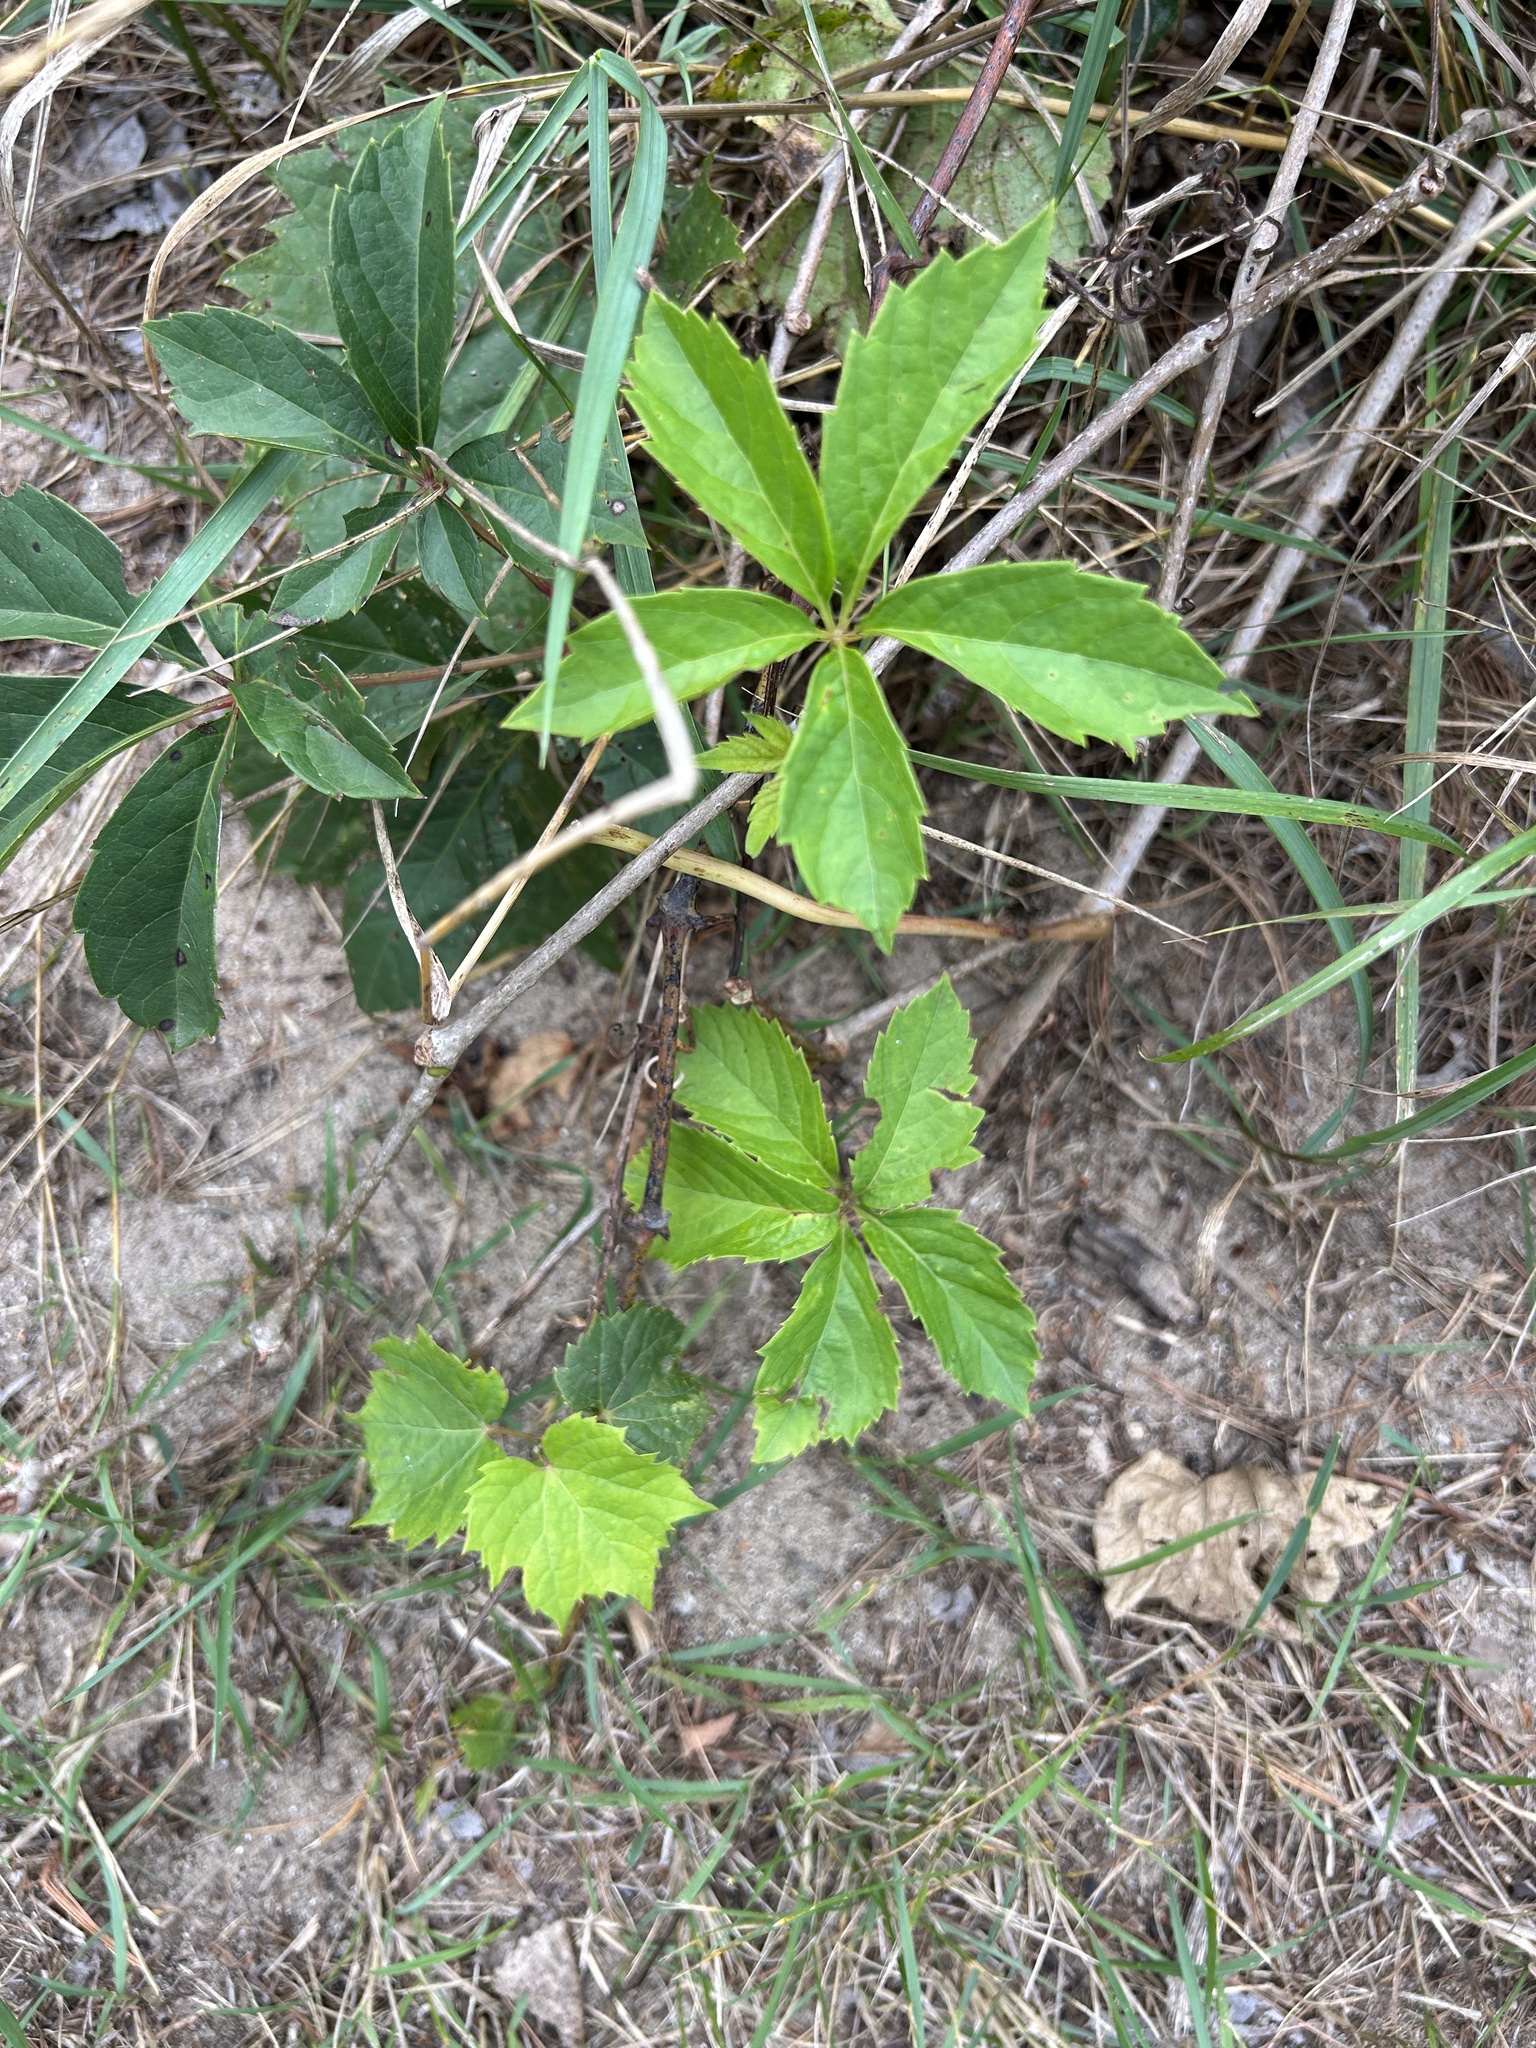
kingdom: Plantae
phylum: Tracheophyta
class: Magnoliopsida
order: Vitales
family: Vitaceae
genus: Parthenocissus
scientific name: Parthenocissus quinquefolia
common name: Virginia-creeper
